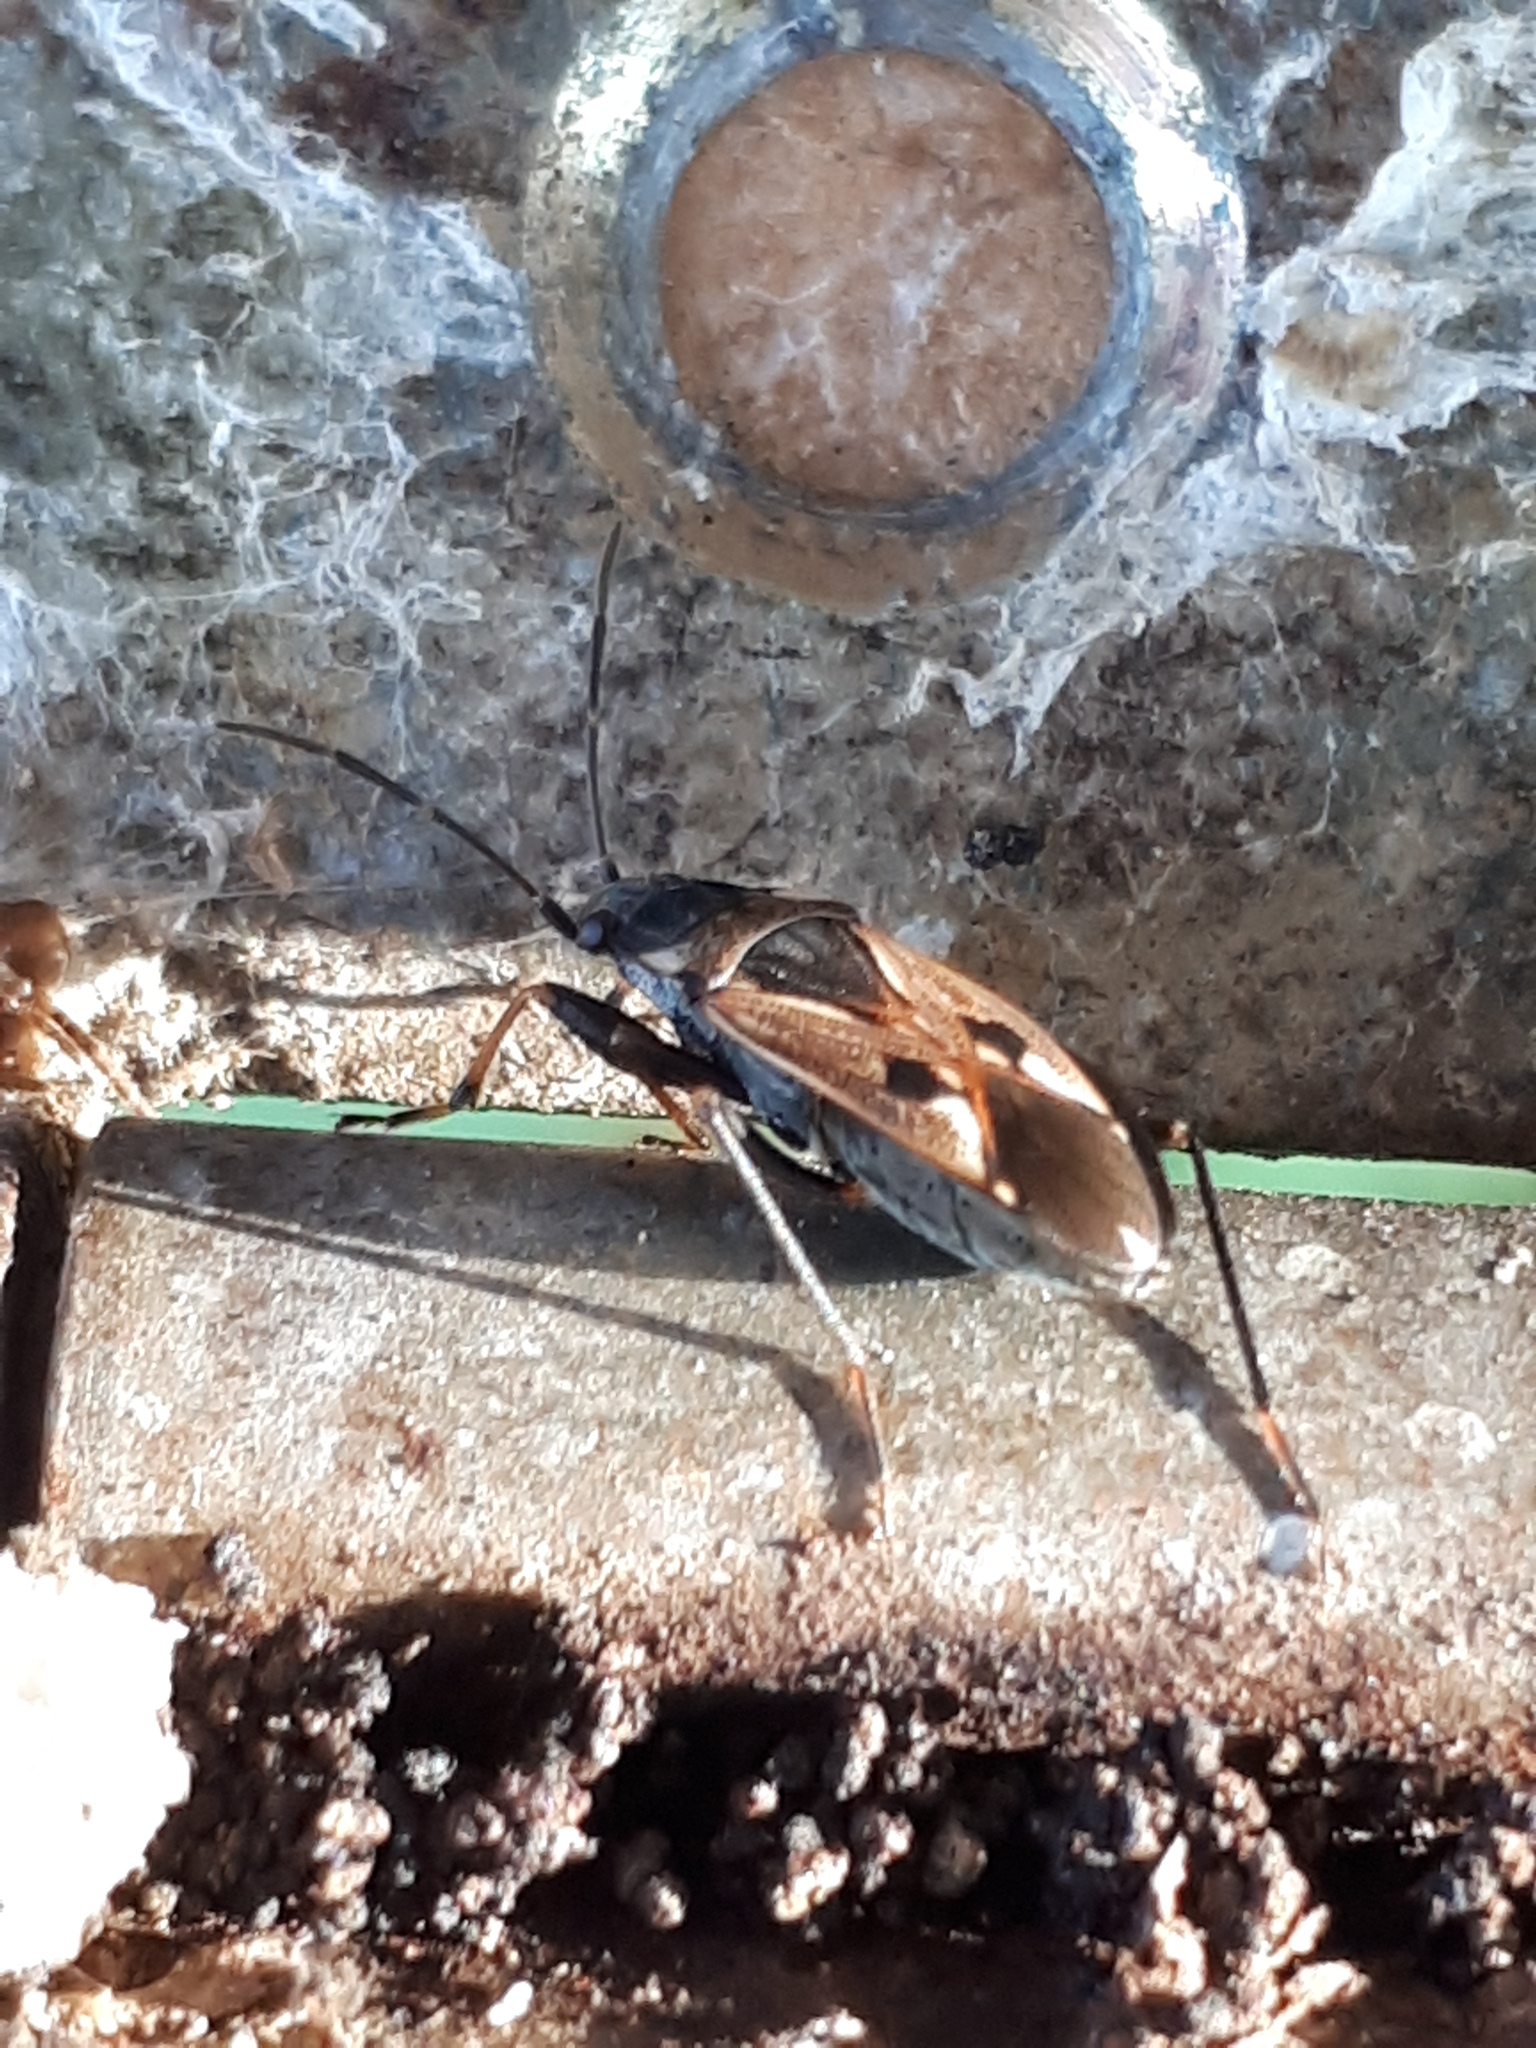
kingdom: Animalia
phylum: Arthropoda
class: Insecta
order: Hemiptera
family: Rhyparochromidae
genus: Rhyparochromus
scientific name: Rhyparochromus vulgaris
